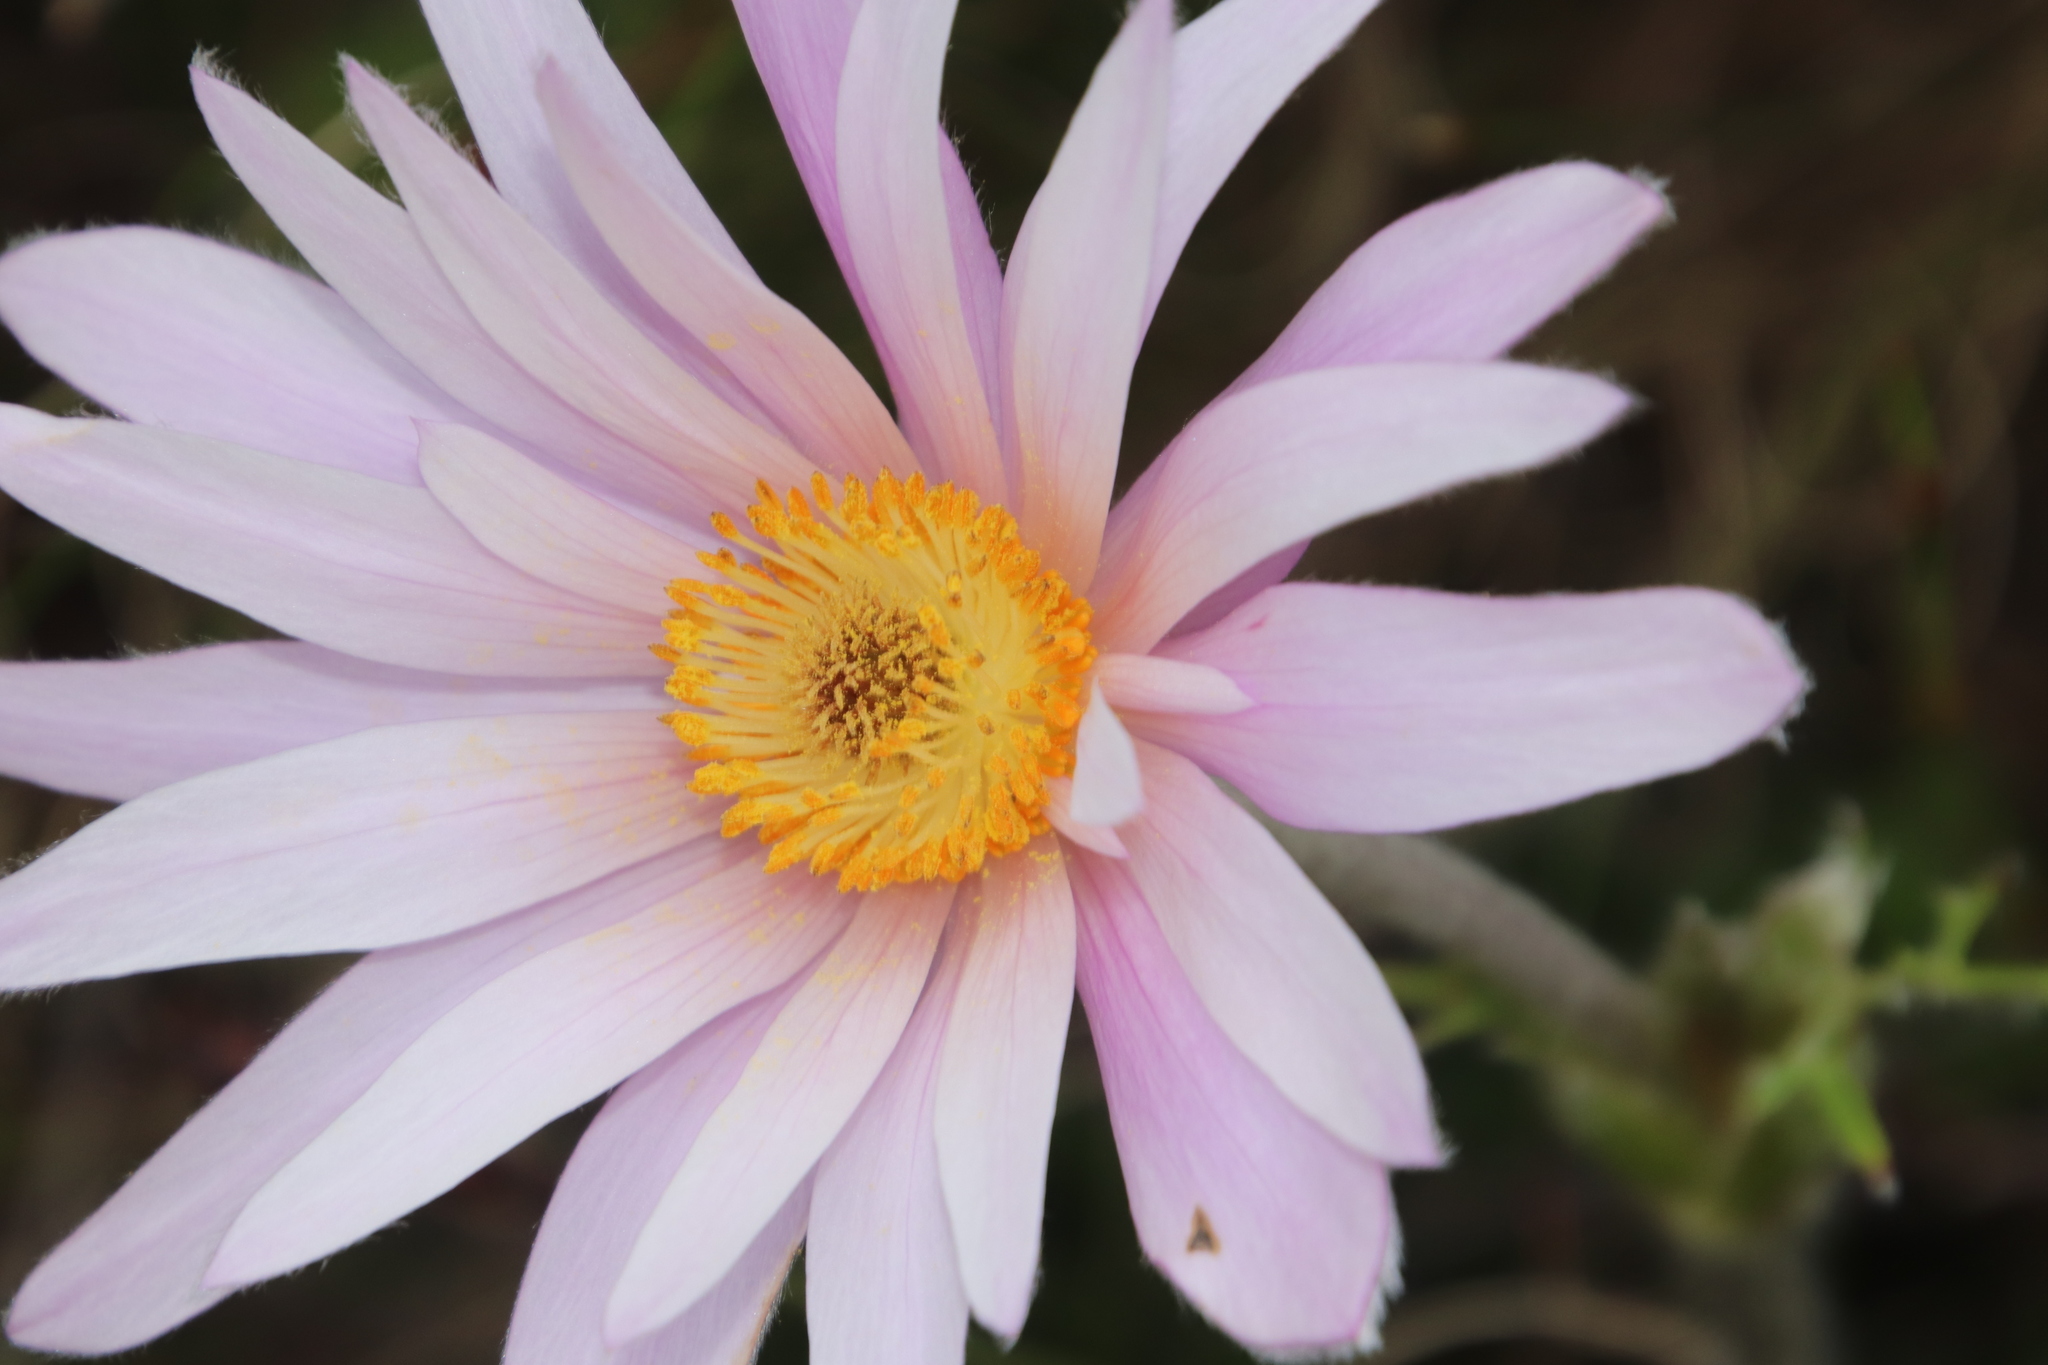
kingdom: Plantae
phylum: Tracheophyta
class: Magnoliopsida
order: Ranunculales
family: Ranunculaceae
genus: Knowltonia
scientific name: Knowltonia tenuifolia
